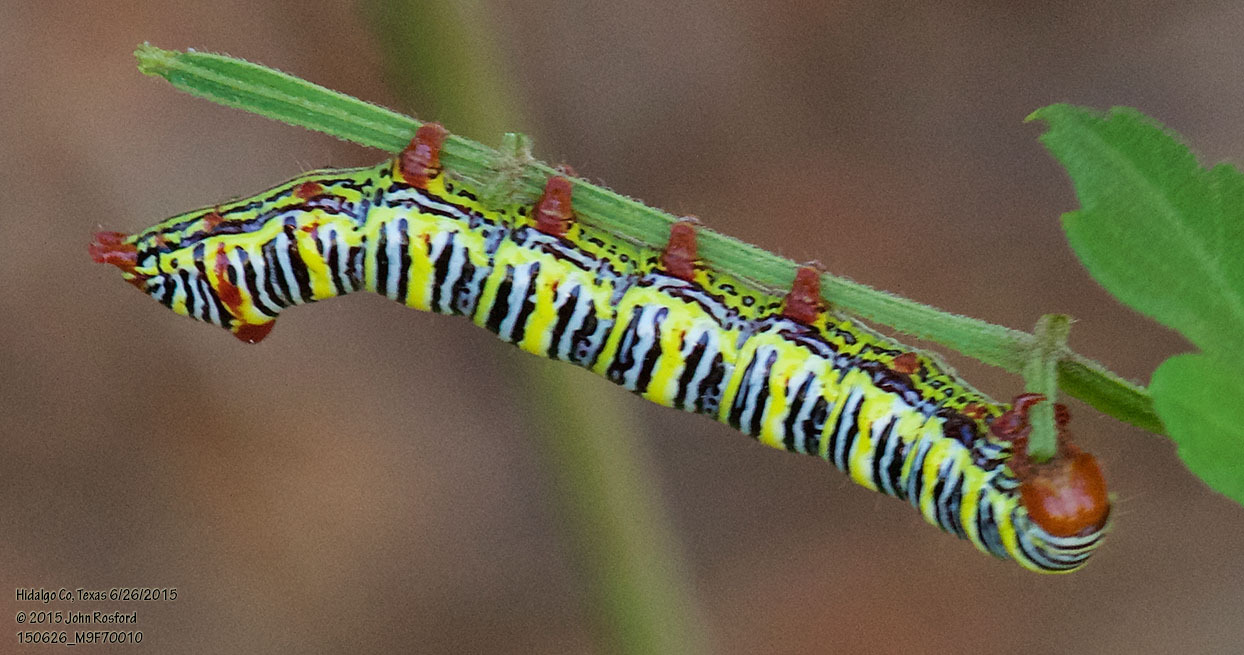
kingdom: Animalia
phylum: Arthropoda
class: Insecta
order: Lepidoptera
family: Notodontidae
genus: Didugua
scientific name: Didugua argentilinea
